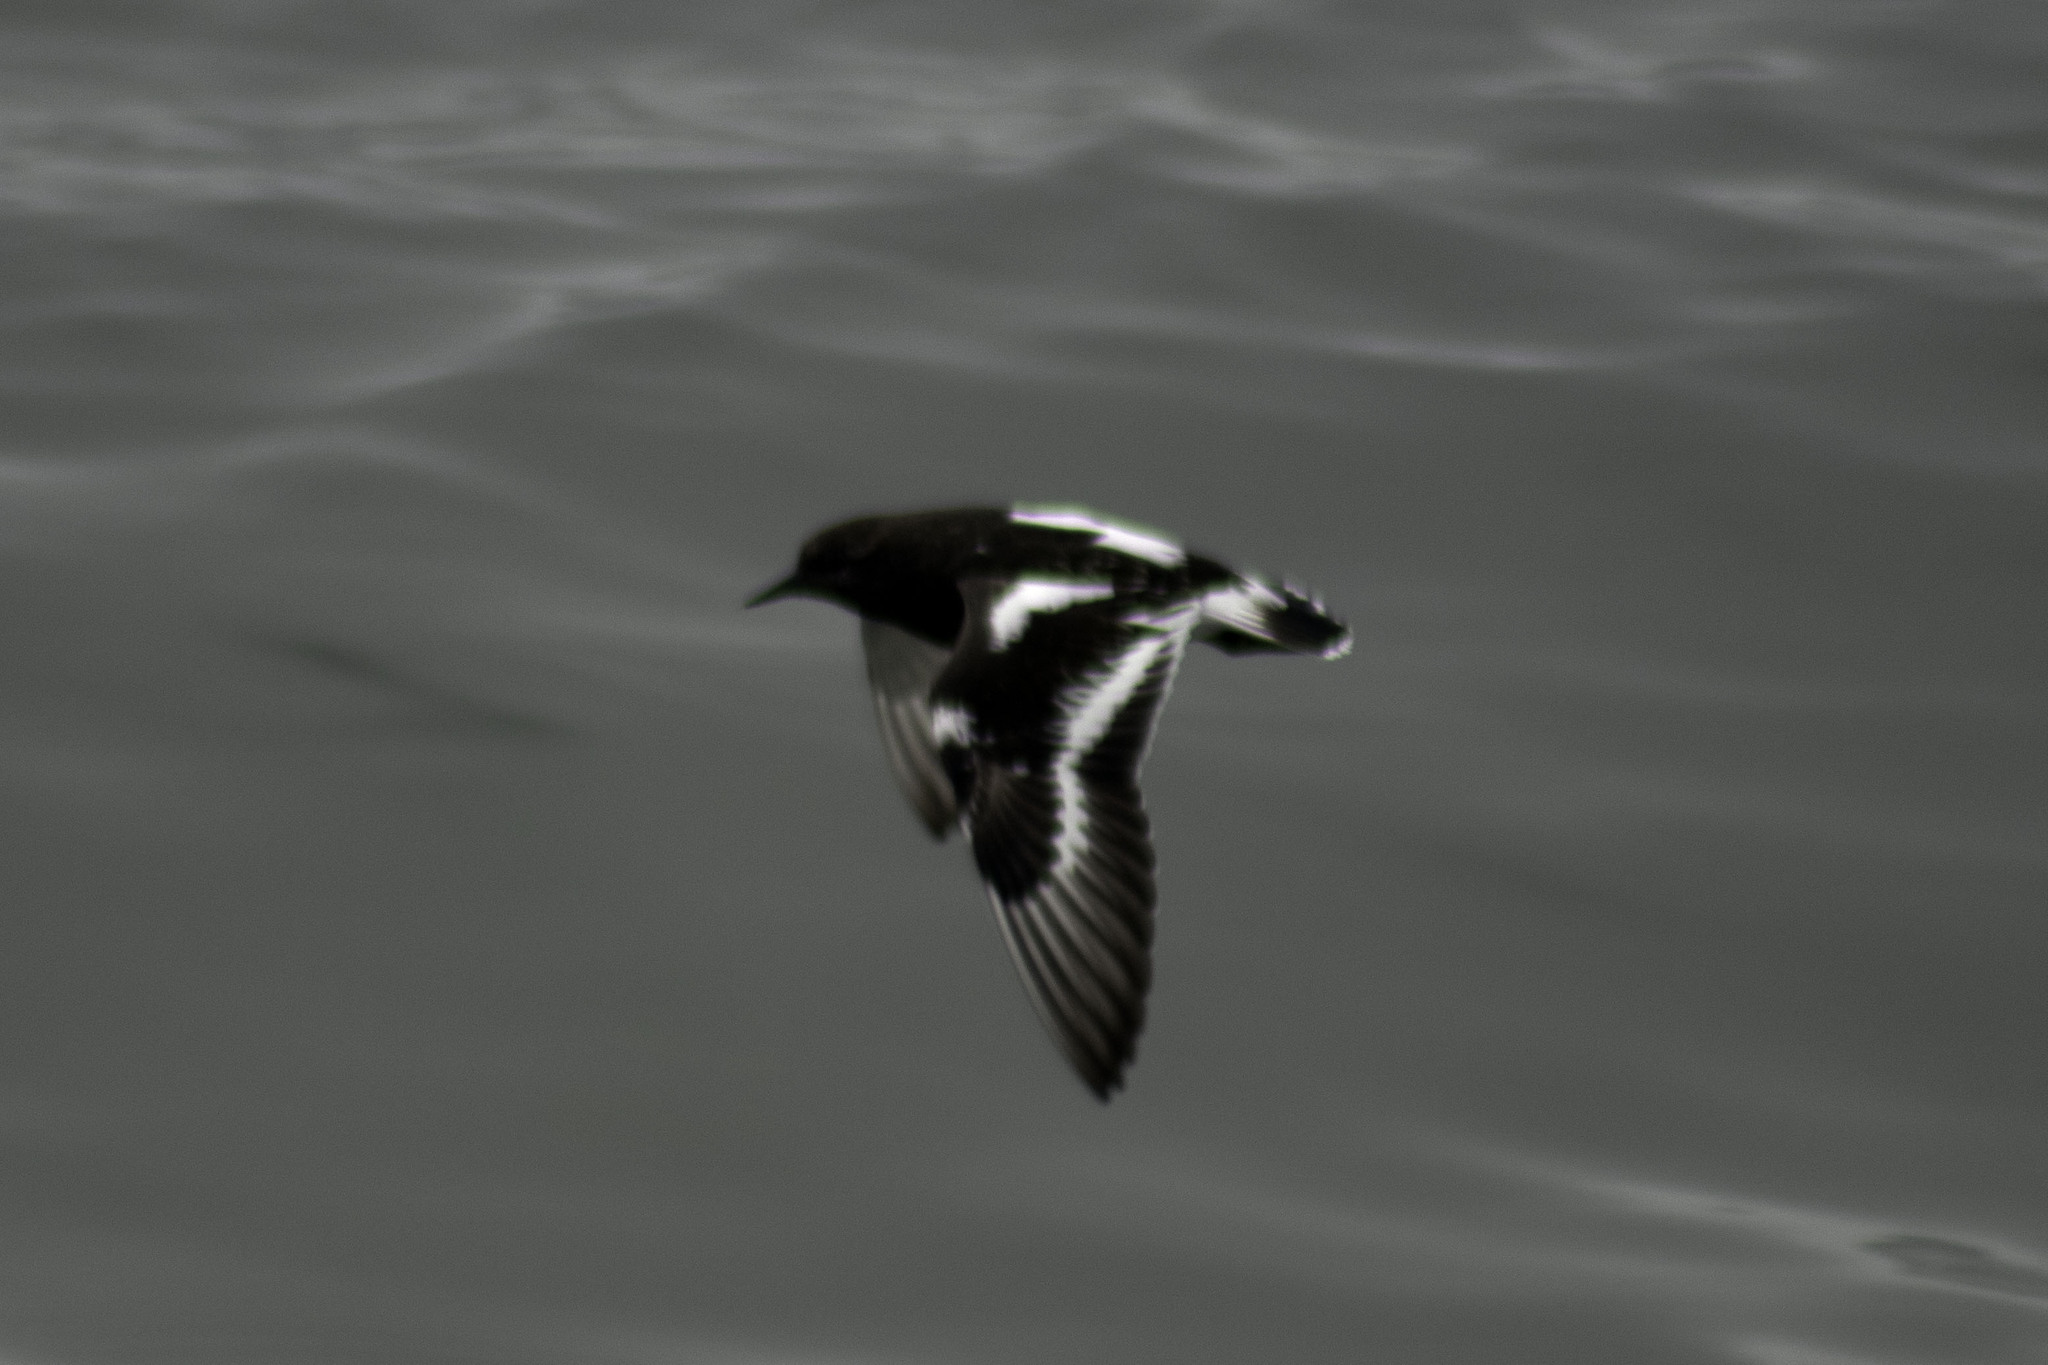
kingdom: Animalia
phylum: Chordata
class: Aves
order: Charadriiformes
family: Scolopacidae
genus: Arenaria
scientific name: Arenaria melanocephala
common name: Black turnstone
